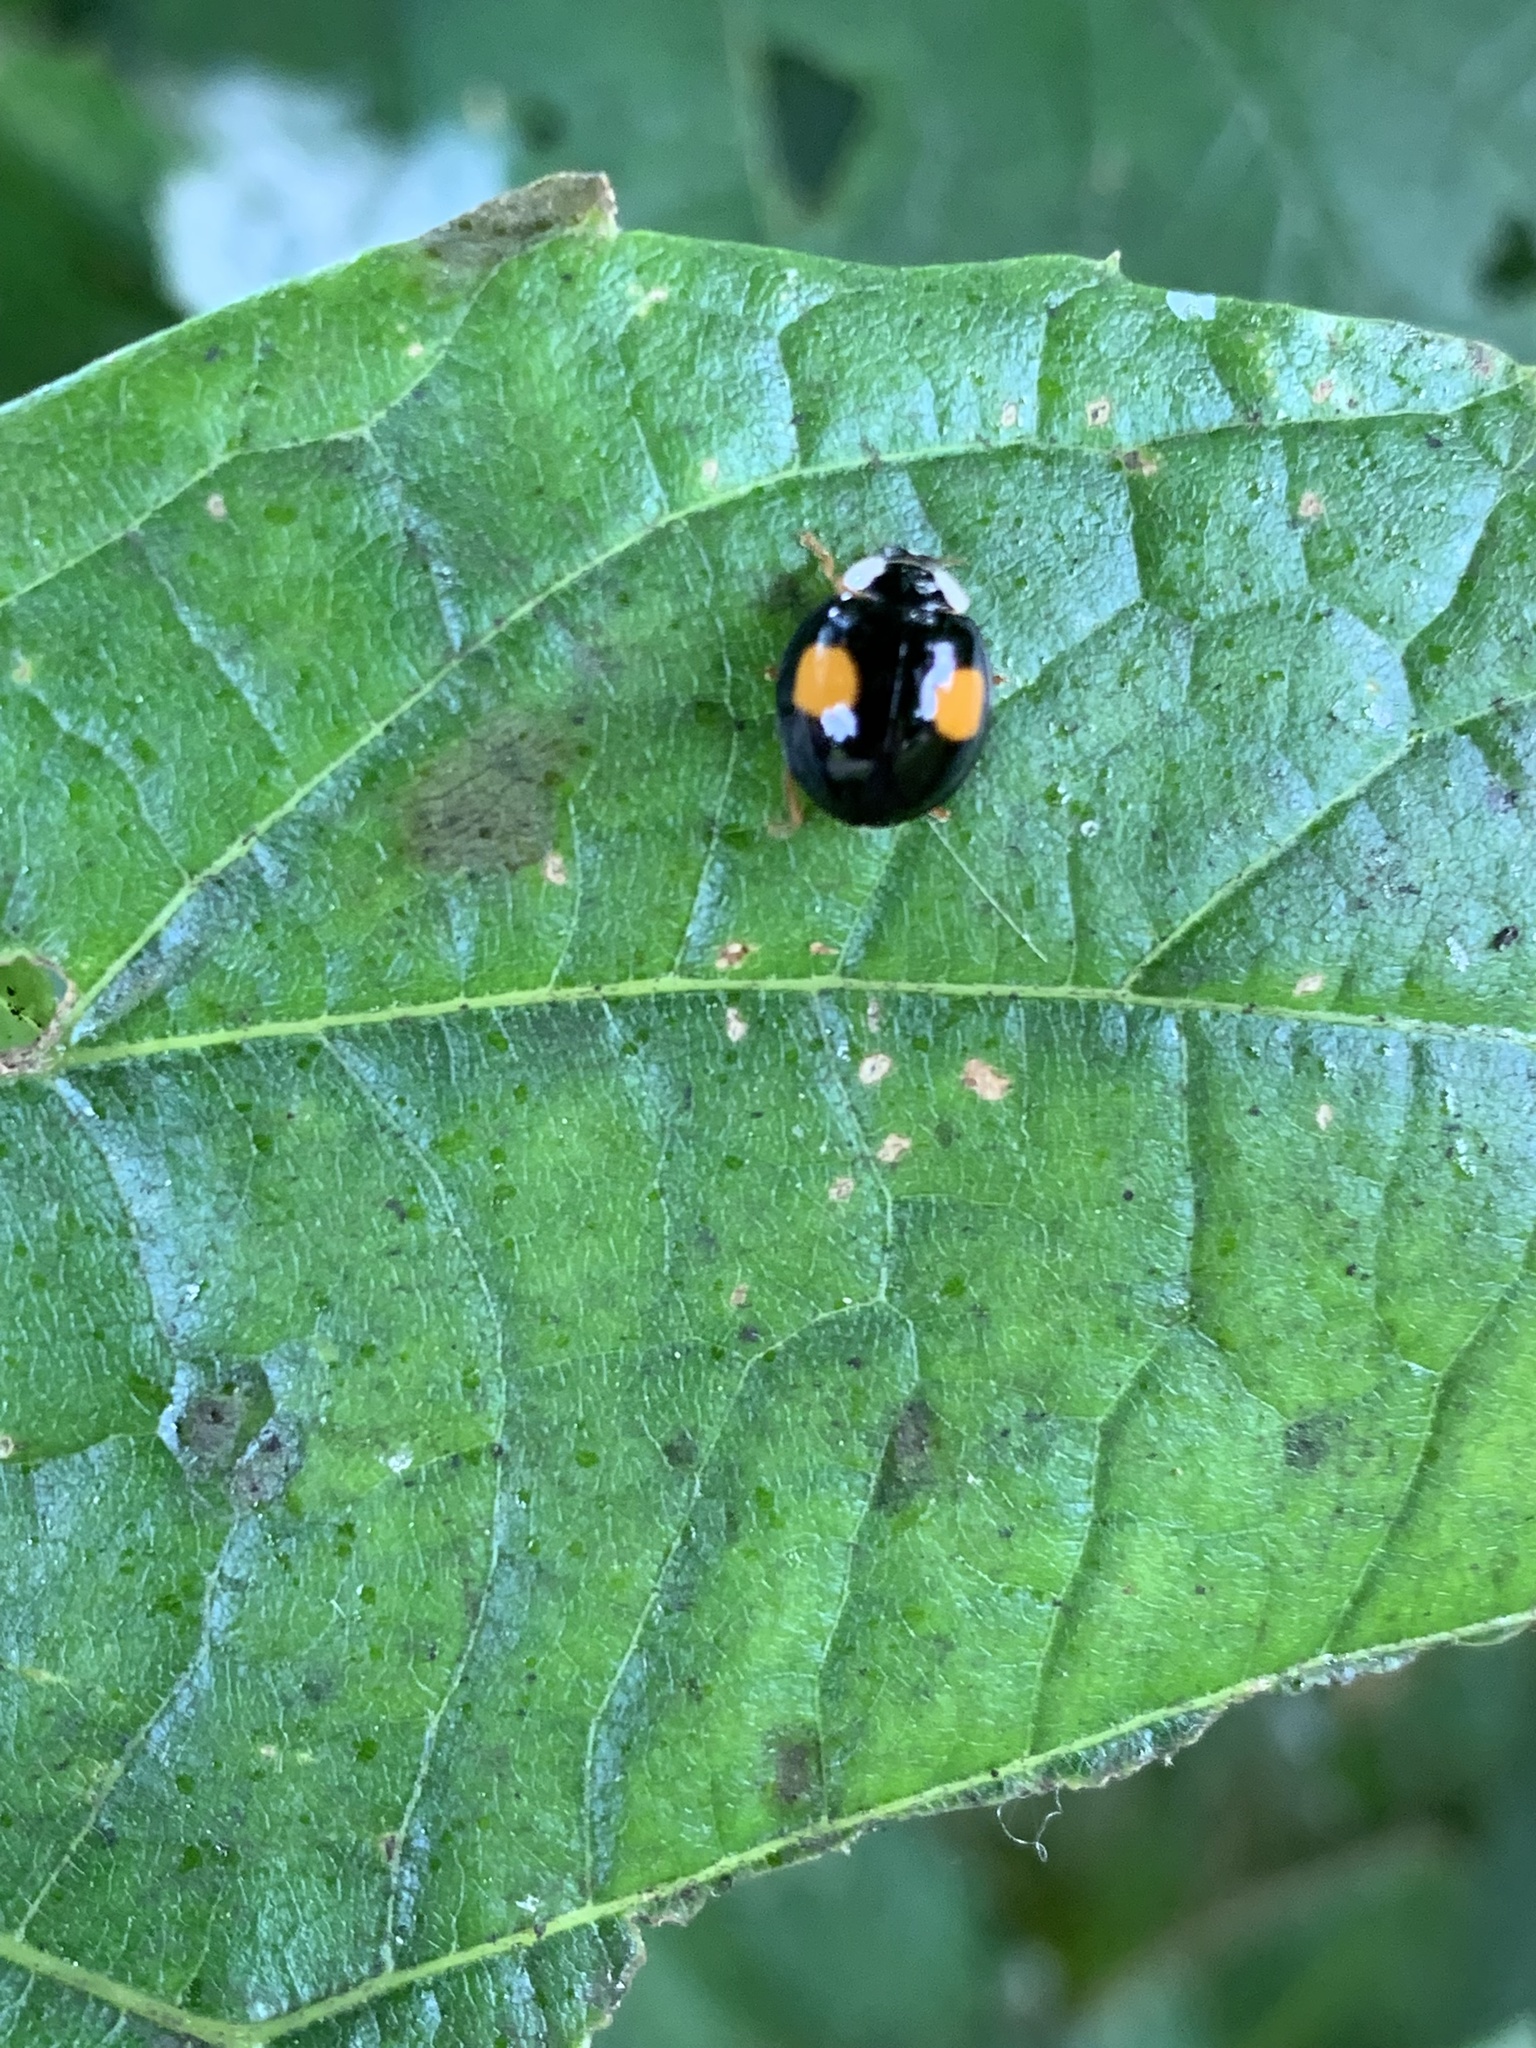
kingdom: Animalia
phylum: Arthropoda
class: Insecta
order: Coleoptera
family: Coccinellidae
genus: Harmonia
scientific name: Harmonia axyridis
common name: Harlequin ladybird
